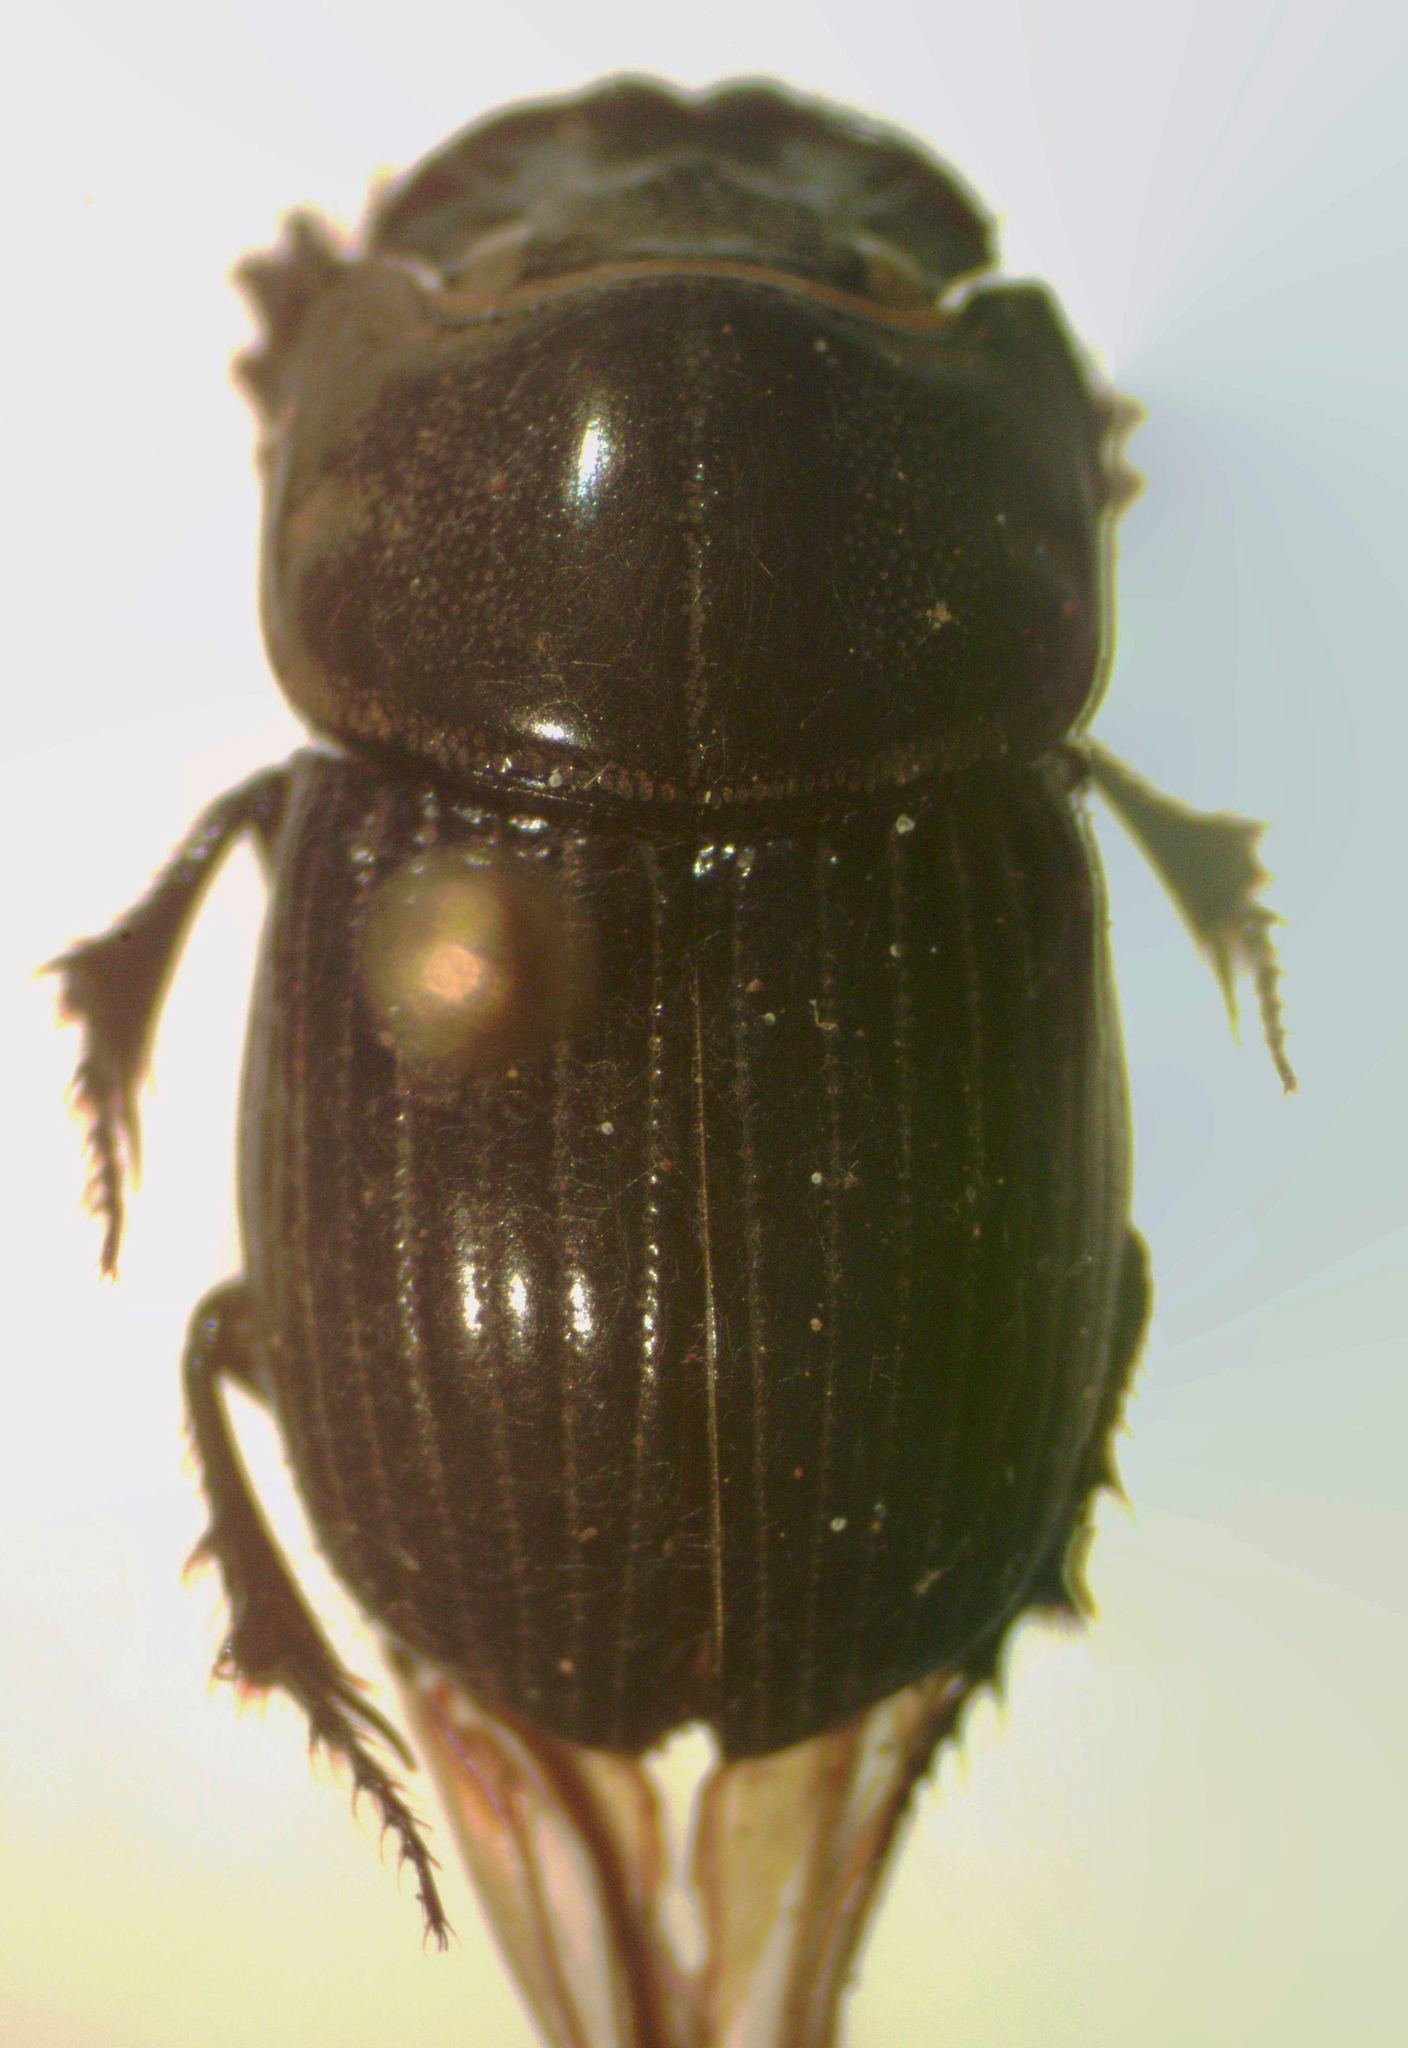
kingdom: Animalia
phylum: Arthropoda
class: Insecta
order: Coleoptera
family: Scarabaeidae
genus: Copris
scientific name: Copris lugubris
